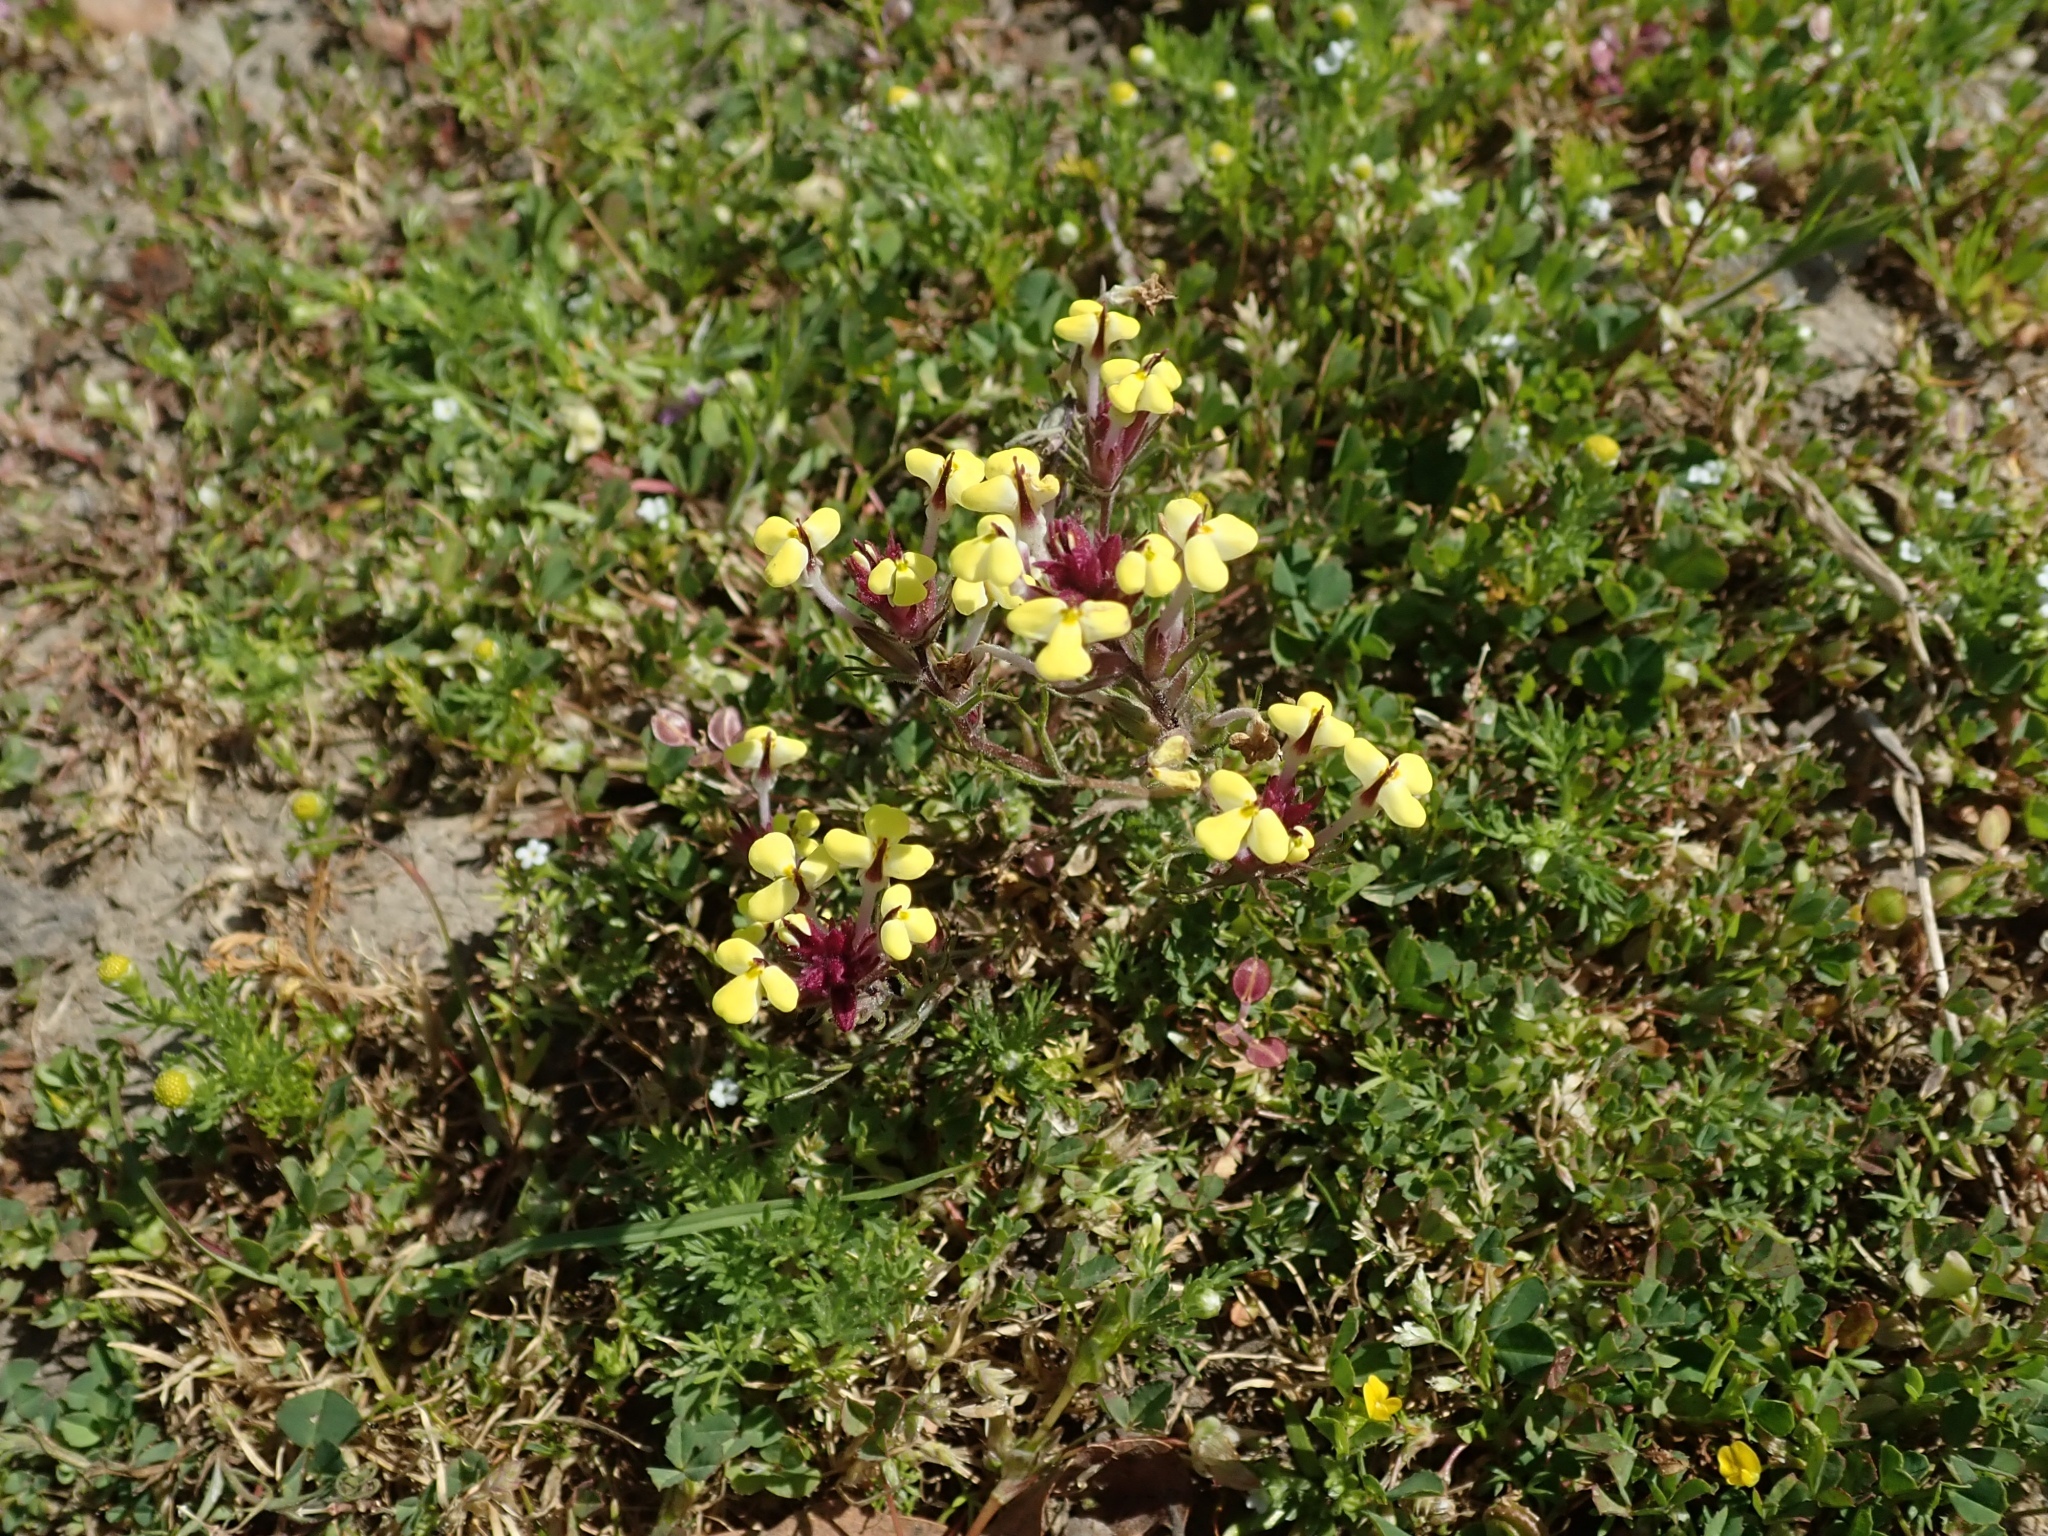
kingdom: Plantae
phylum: Tracheophyta
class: Magnoliopsida
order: Lamiales
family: Orobanchaceae
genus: Triphysaria
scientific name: Triphysaria eriantha
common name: Johnny-tuck
